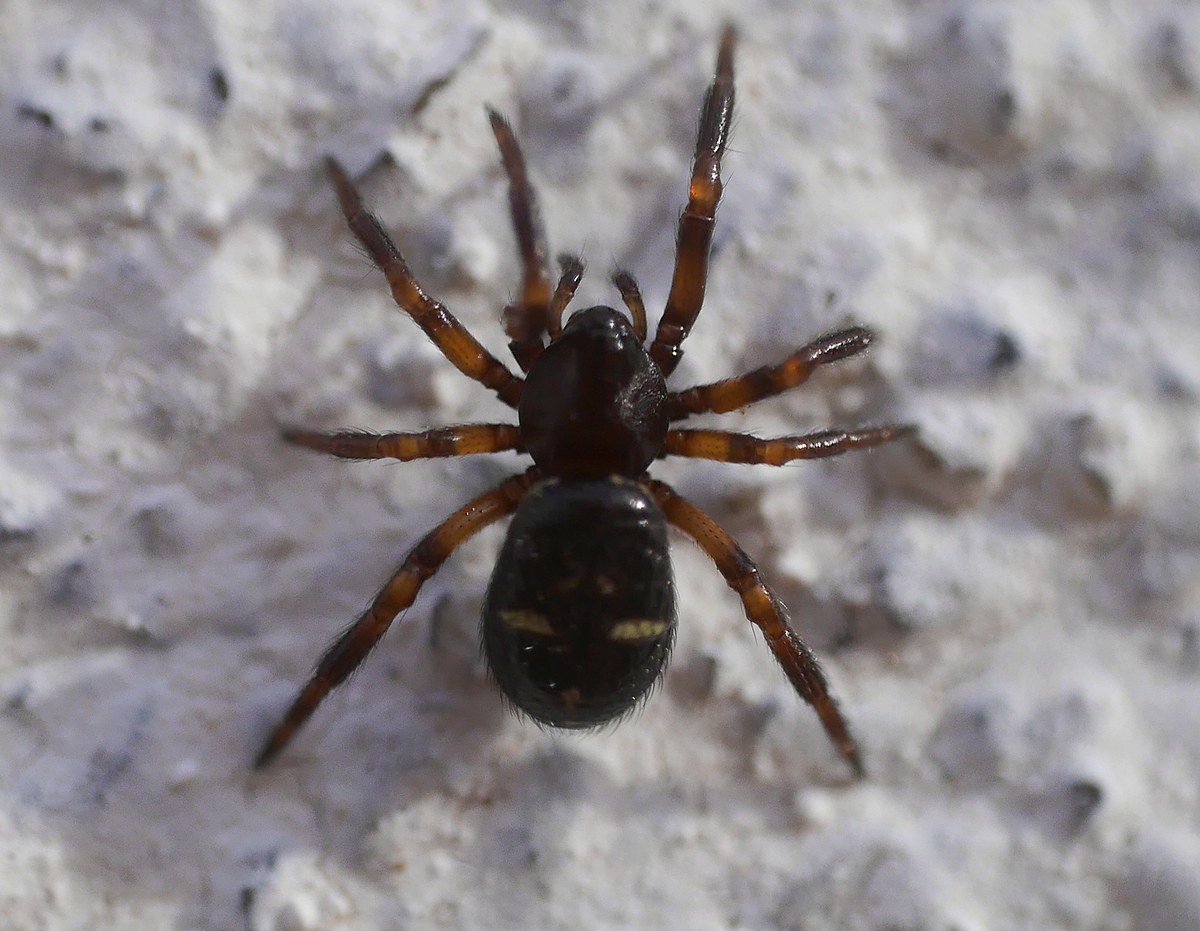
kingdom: Animalia
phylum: Arthropoda
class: Arachnida
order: Araneae
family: Theridiidae
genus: Asagena
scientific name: Asagena phalerata
